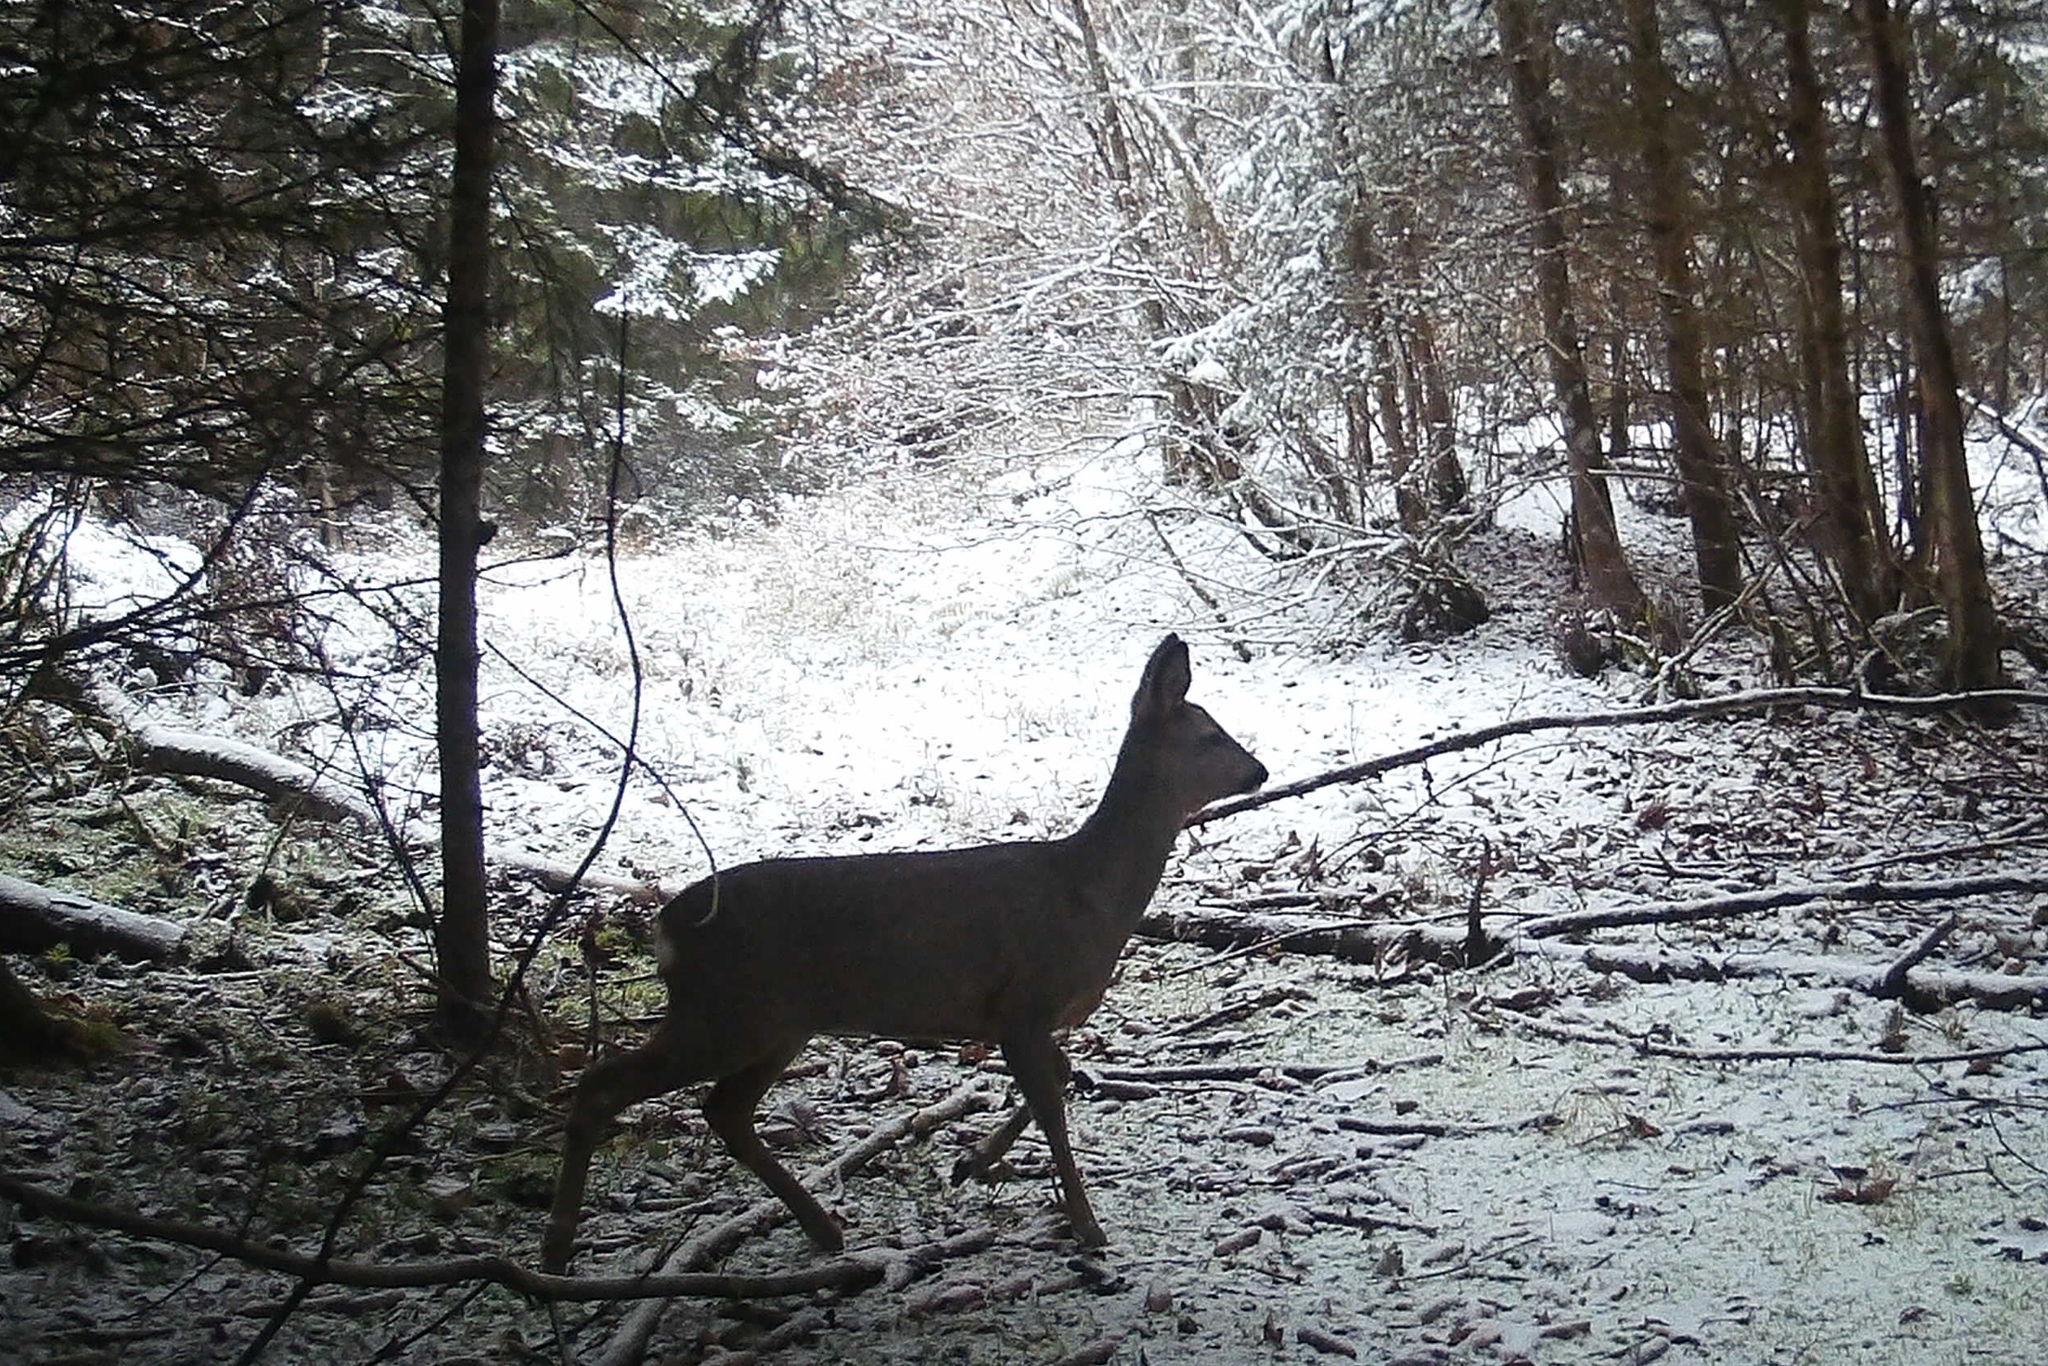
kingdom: Animalia
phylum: Chordata
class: Mammalia
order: Artiodactyla
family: Cervidae
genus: Capreolus
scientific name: Capreolus capreolus
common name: Western roe deer
